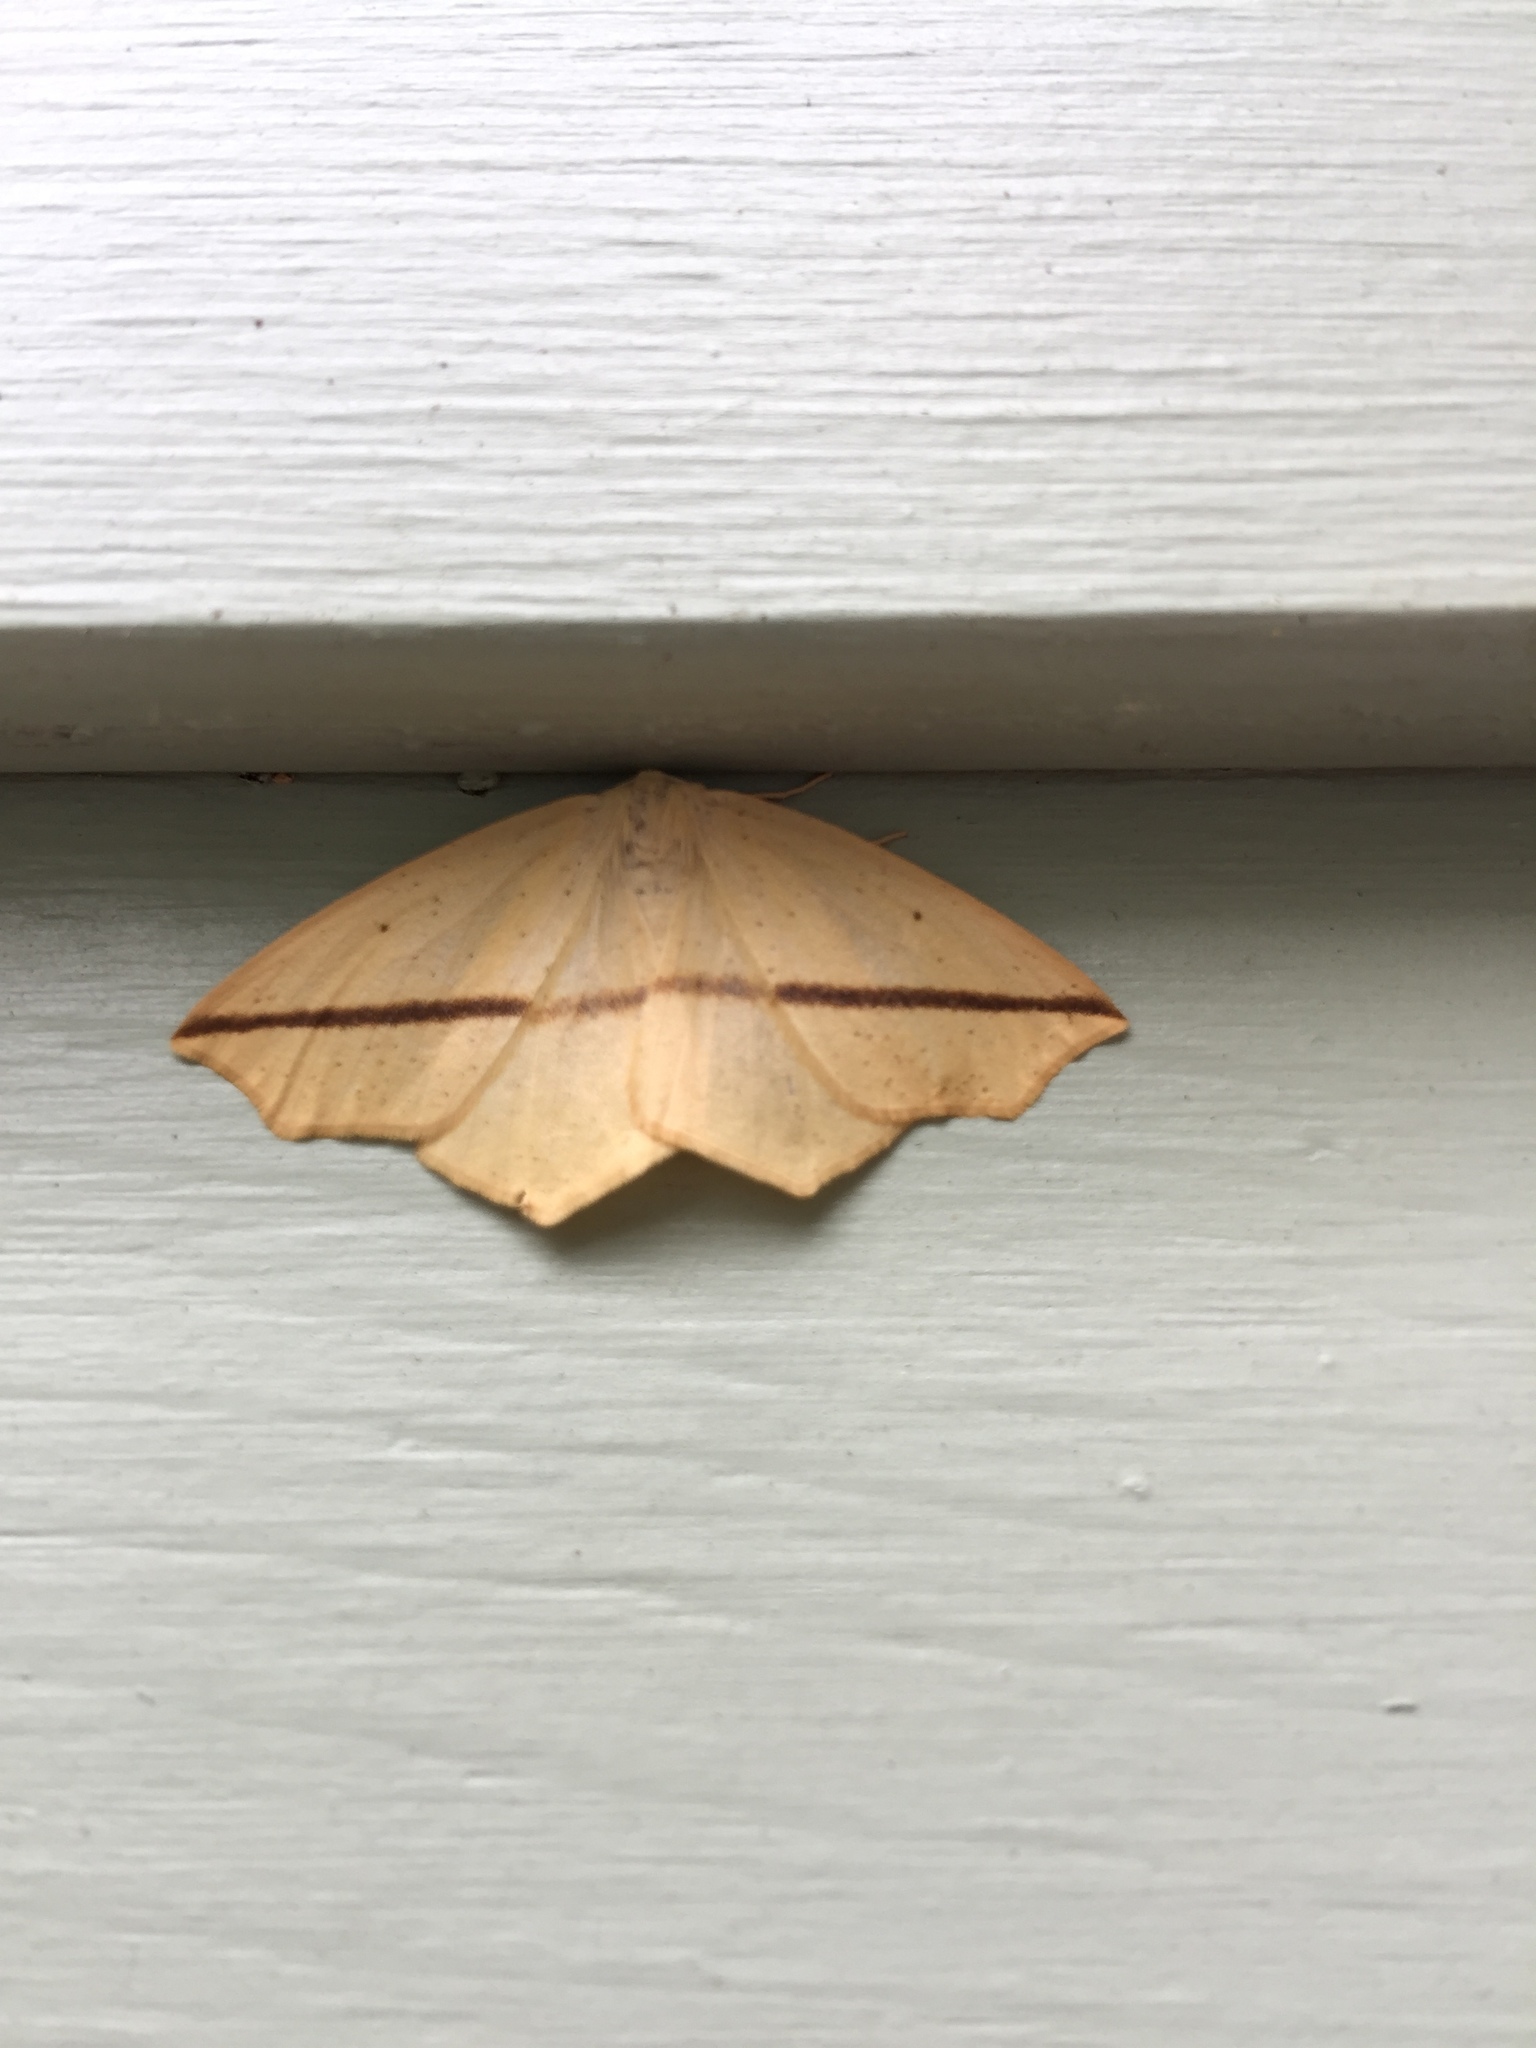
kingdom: Animalia
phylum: Arthropoda
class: Insecta
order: Lepidoptera
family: Geometridae
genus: Tetracis
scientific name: Tetracis crocallata
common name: Yellow slant-line
